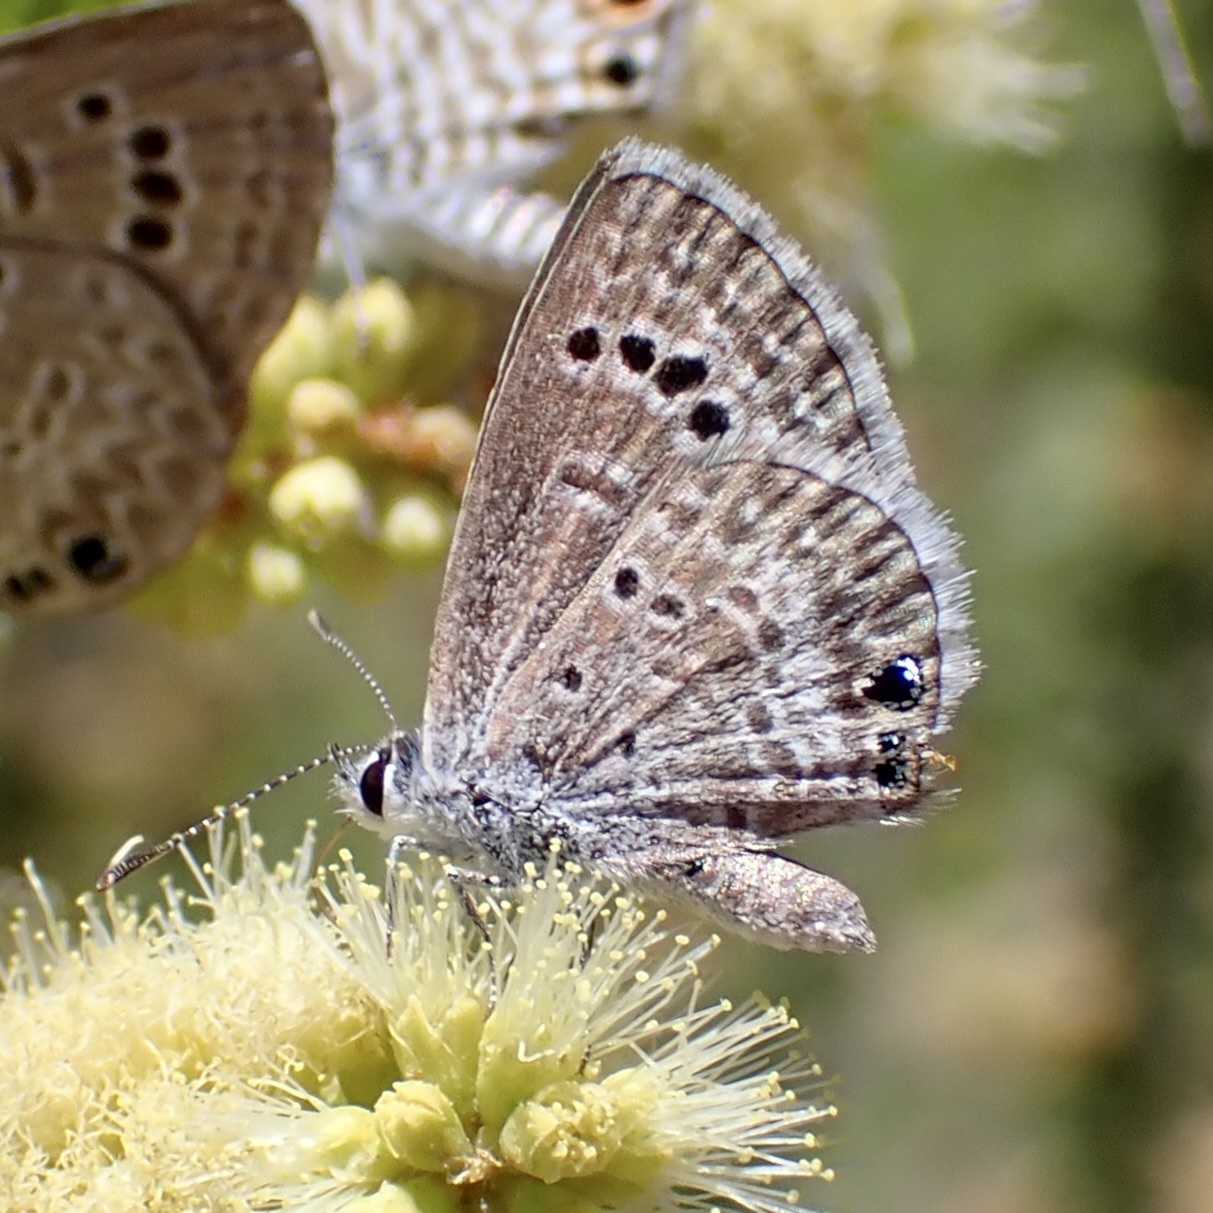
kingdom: Animalia
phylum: Arthropoda
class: Insecta
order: Lepidoptera
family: Lycaenidae
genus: Echinargus
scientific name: Echinargus isola
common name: Reakirt's blue
